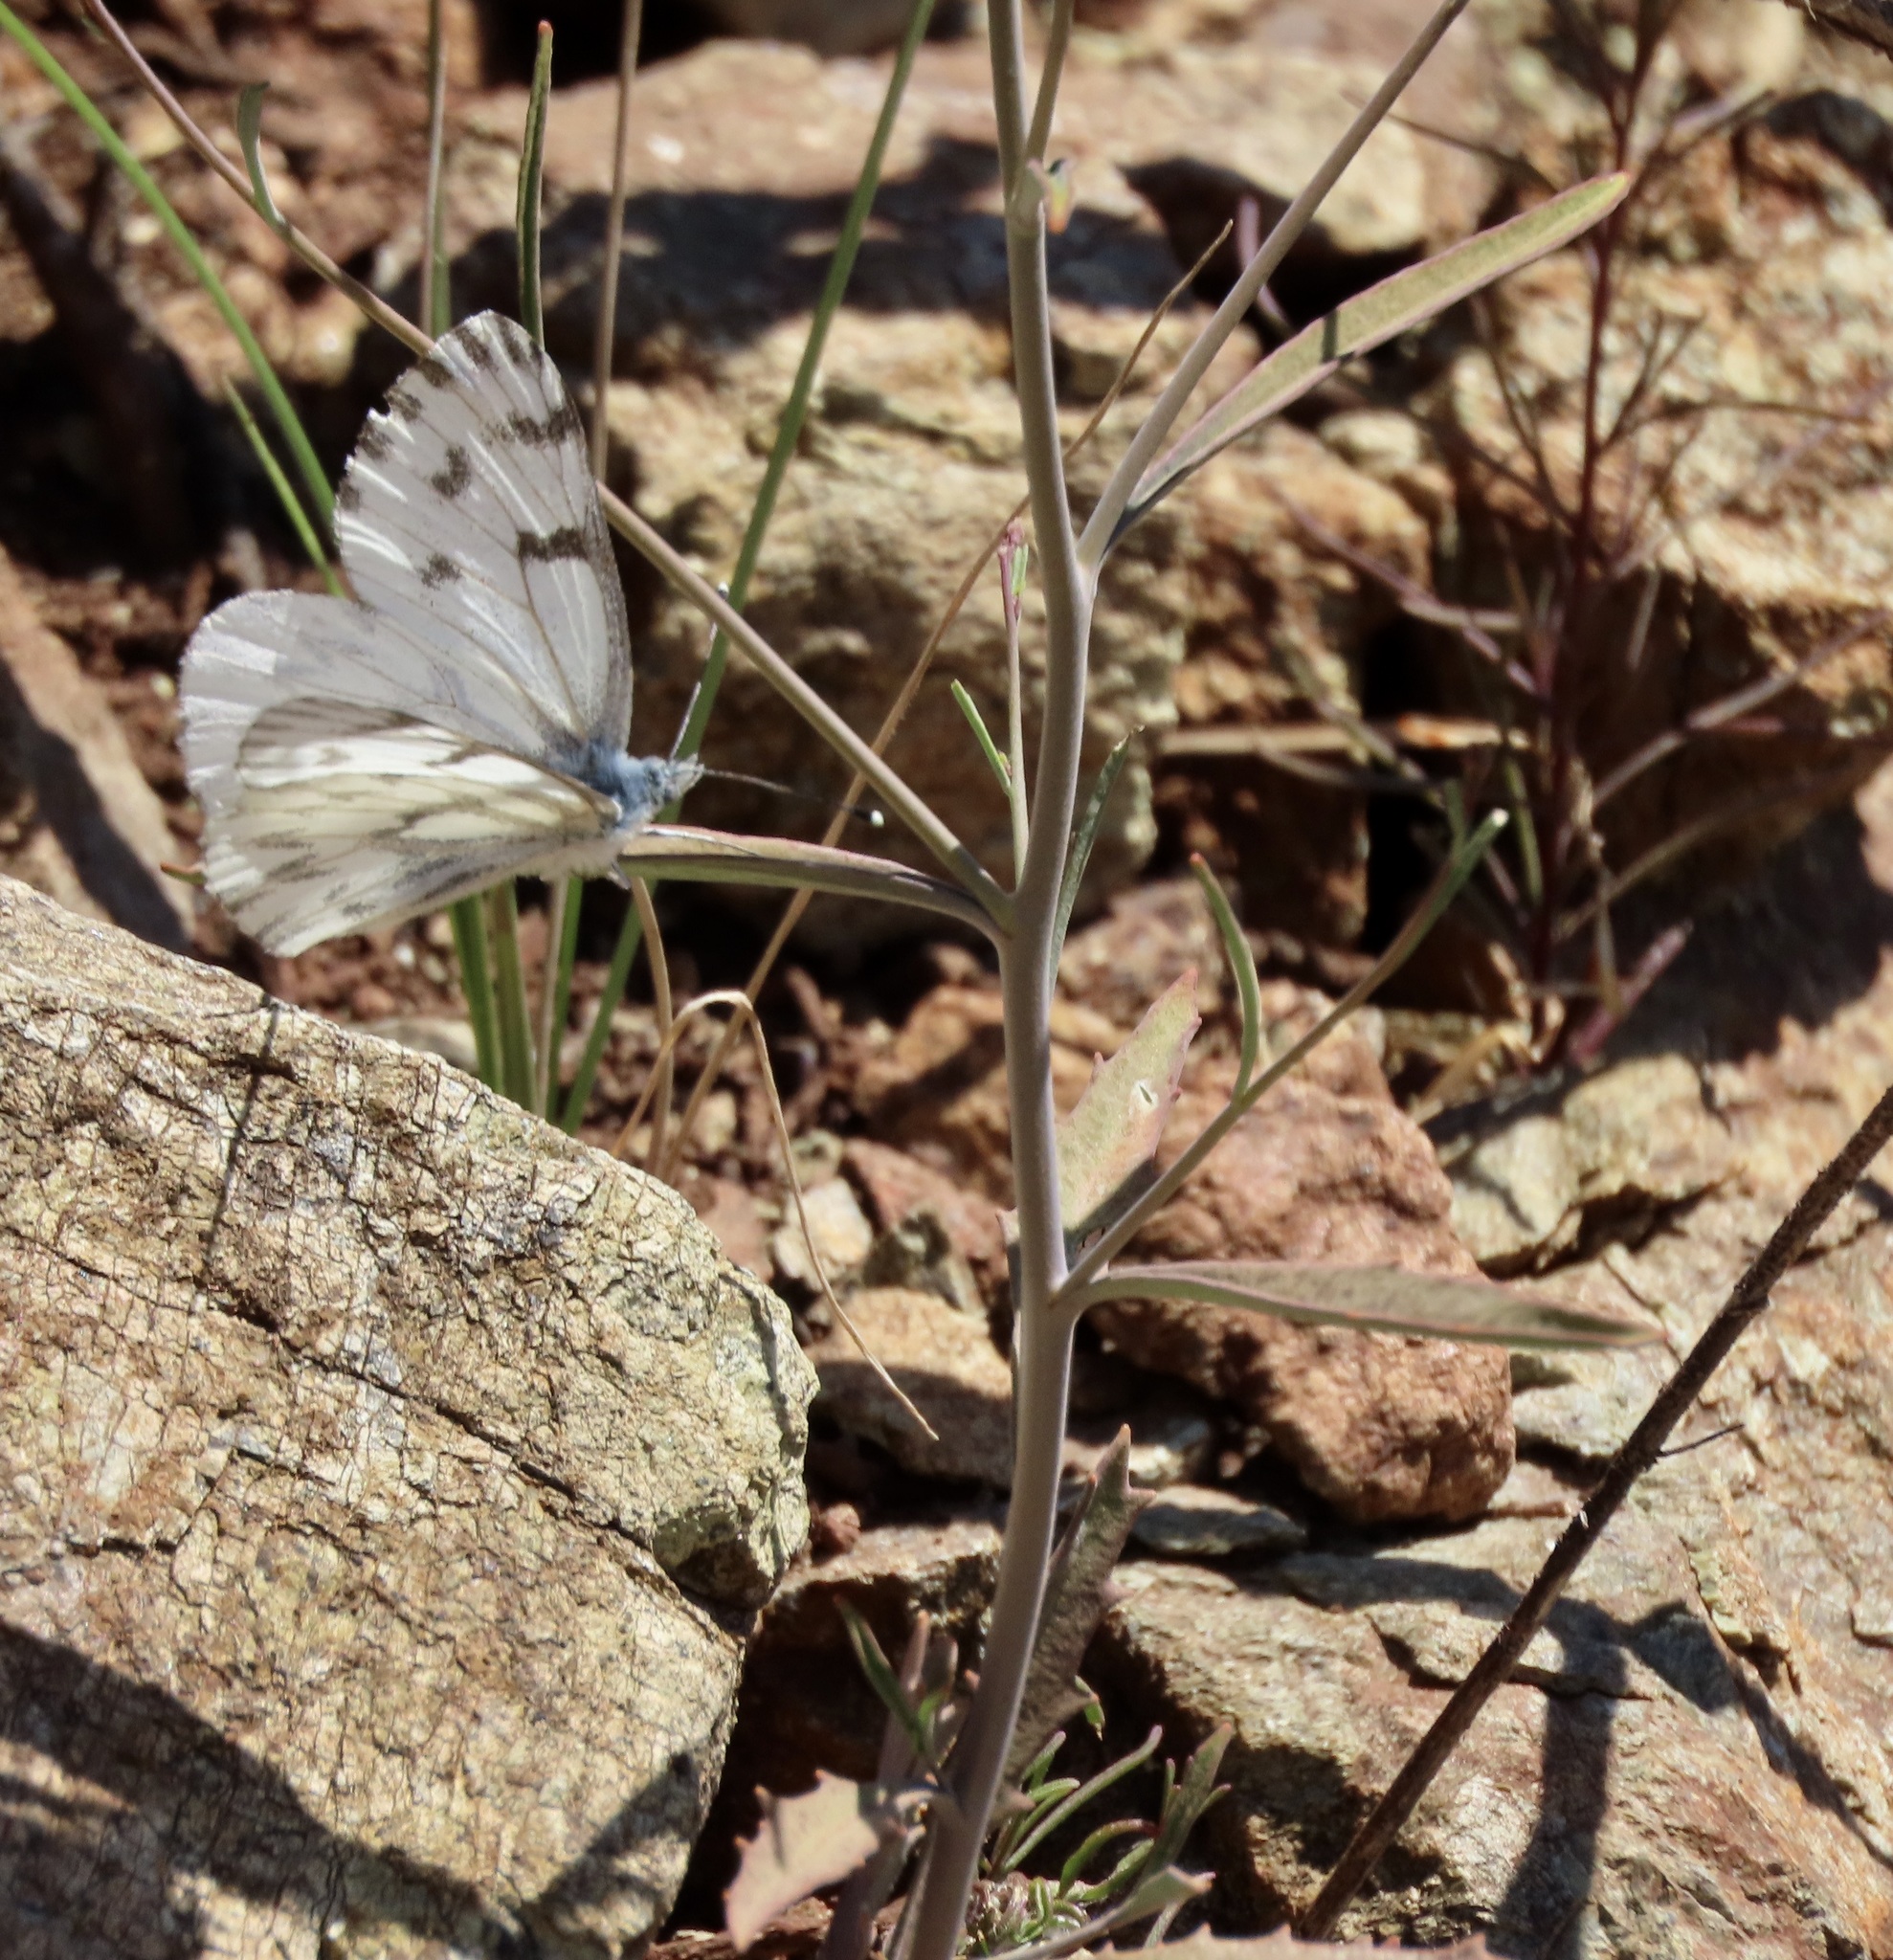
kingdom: Animalia
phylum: Arthropoda
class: Insecta
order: Lepidoptera
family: Pieridae
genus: Pontia
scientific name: Pontia sisymbrii
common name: California white
